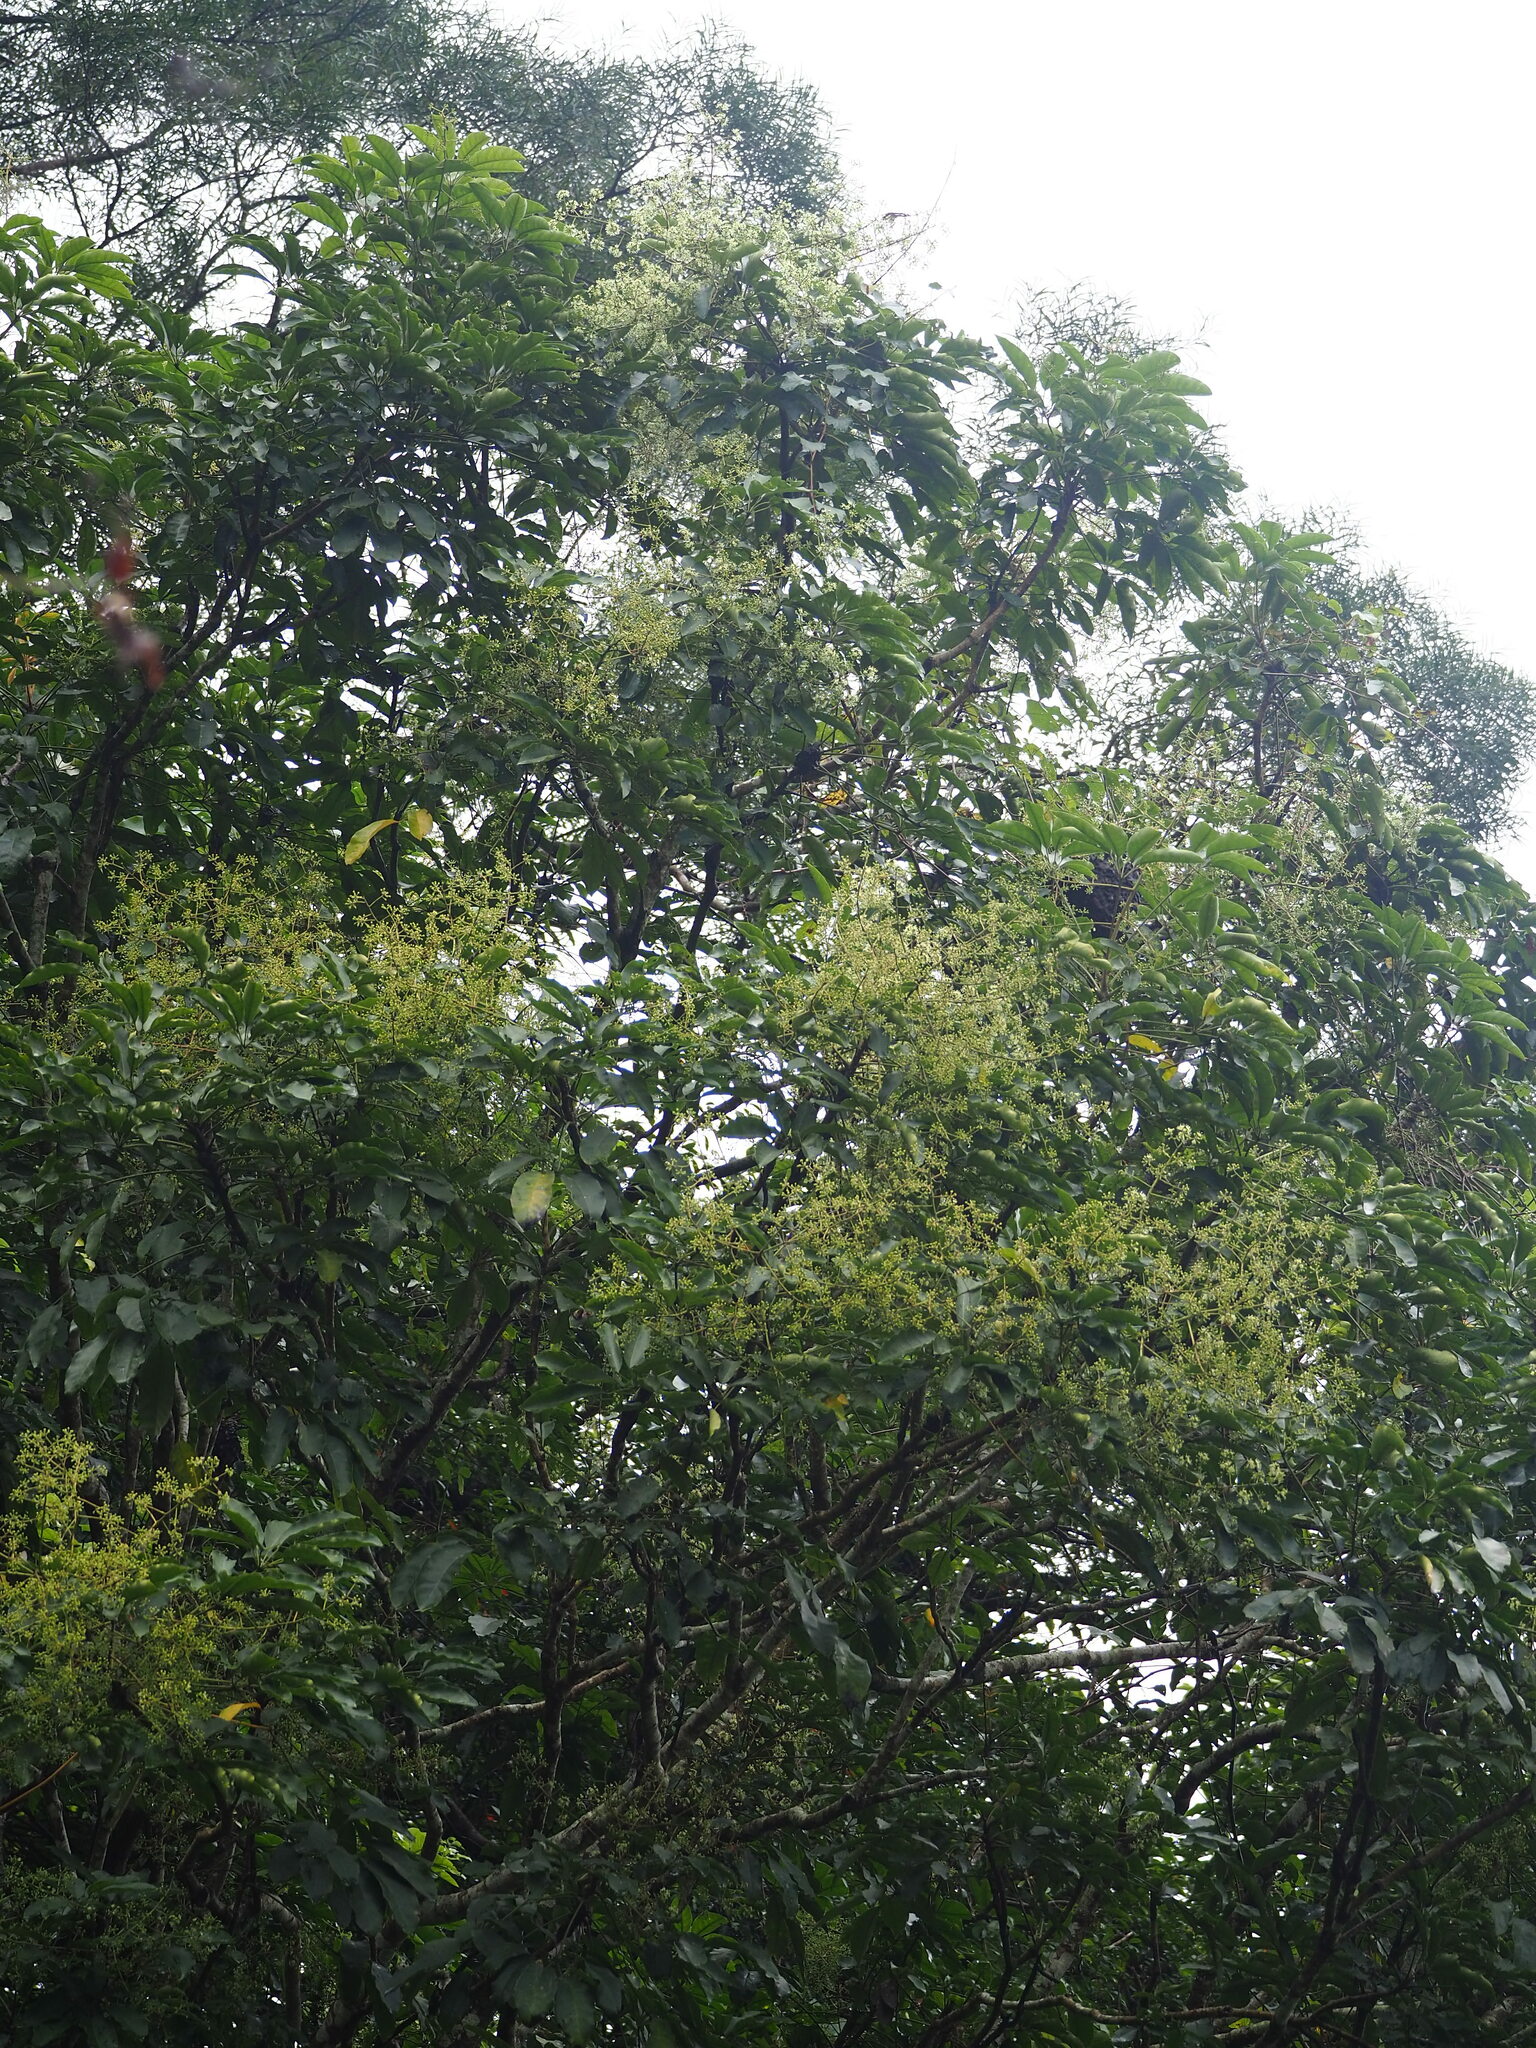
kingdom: Plantae
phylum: Tracheophyta
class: Magnoliopsida
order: Apiales
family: Araliaceae
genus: Heptapleurum
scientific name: Heptapleurum heptaphyllum
